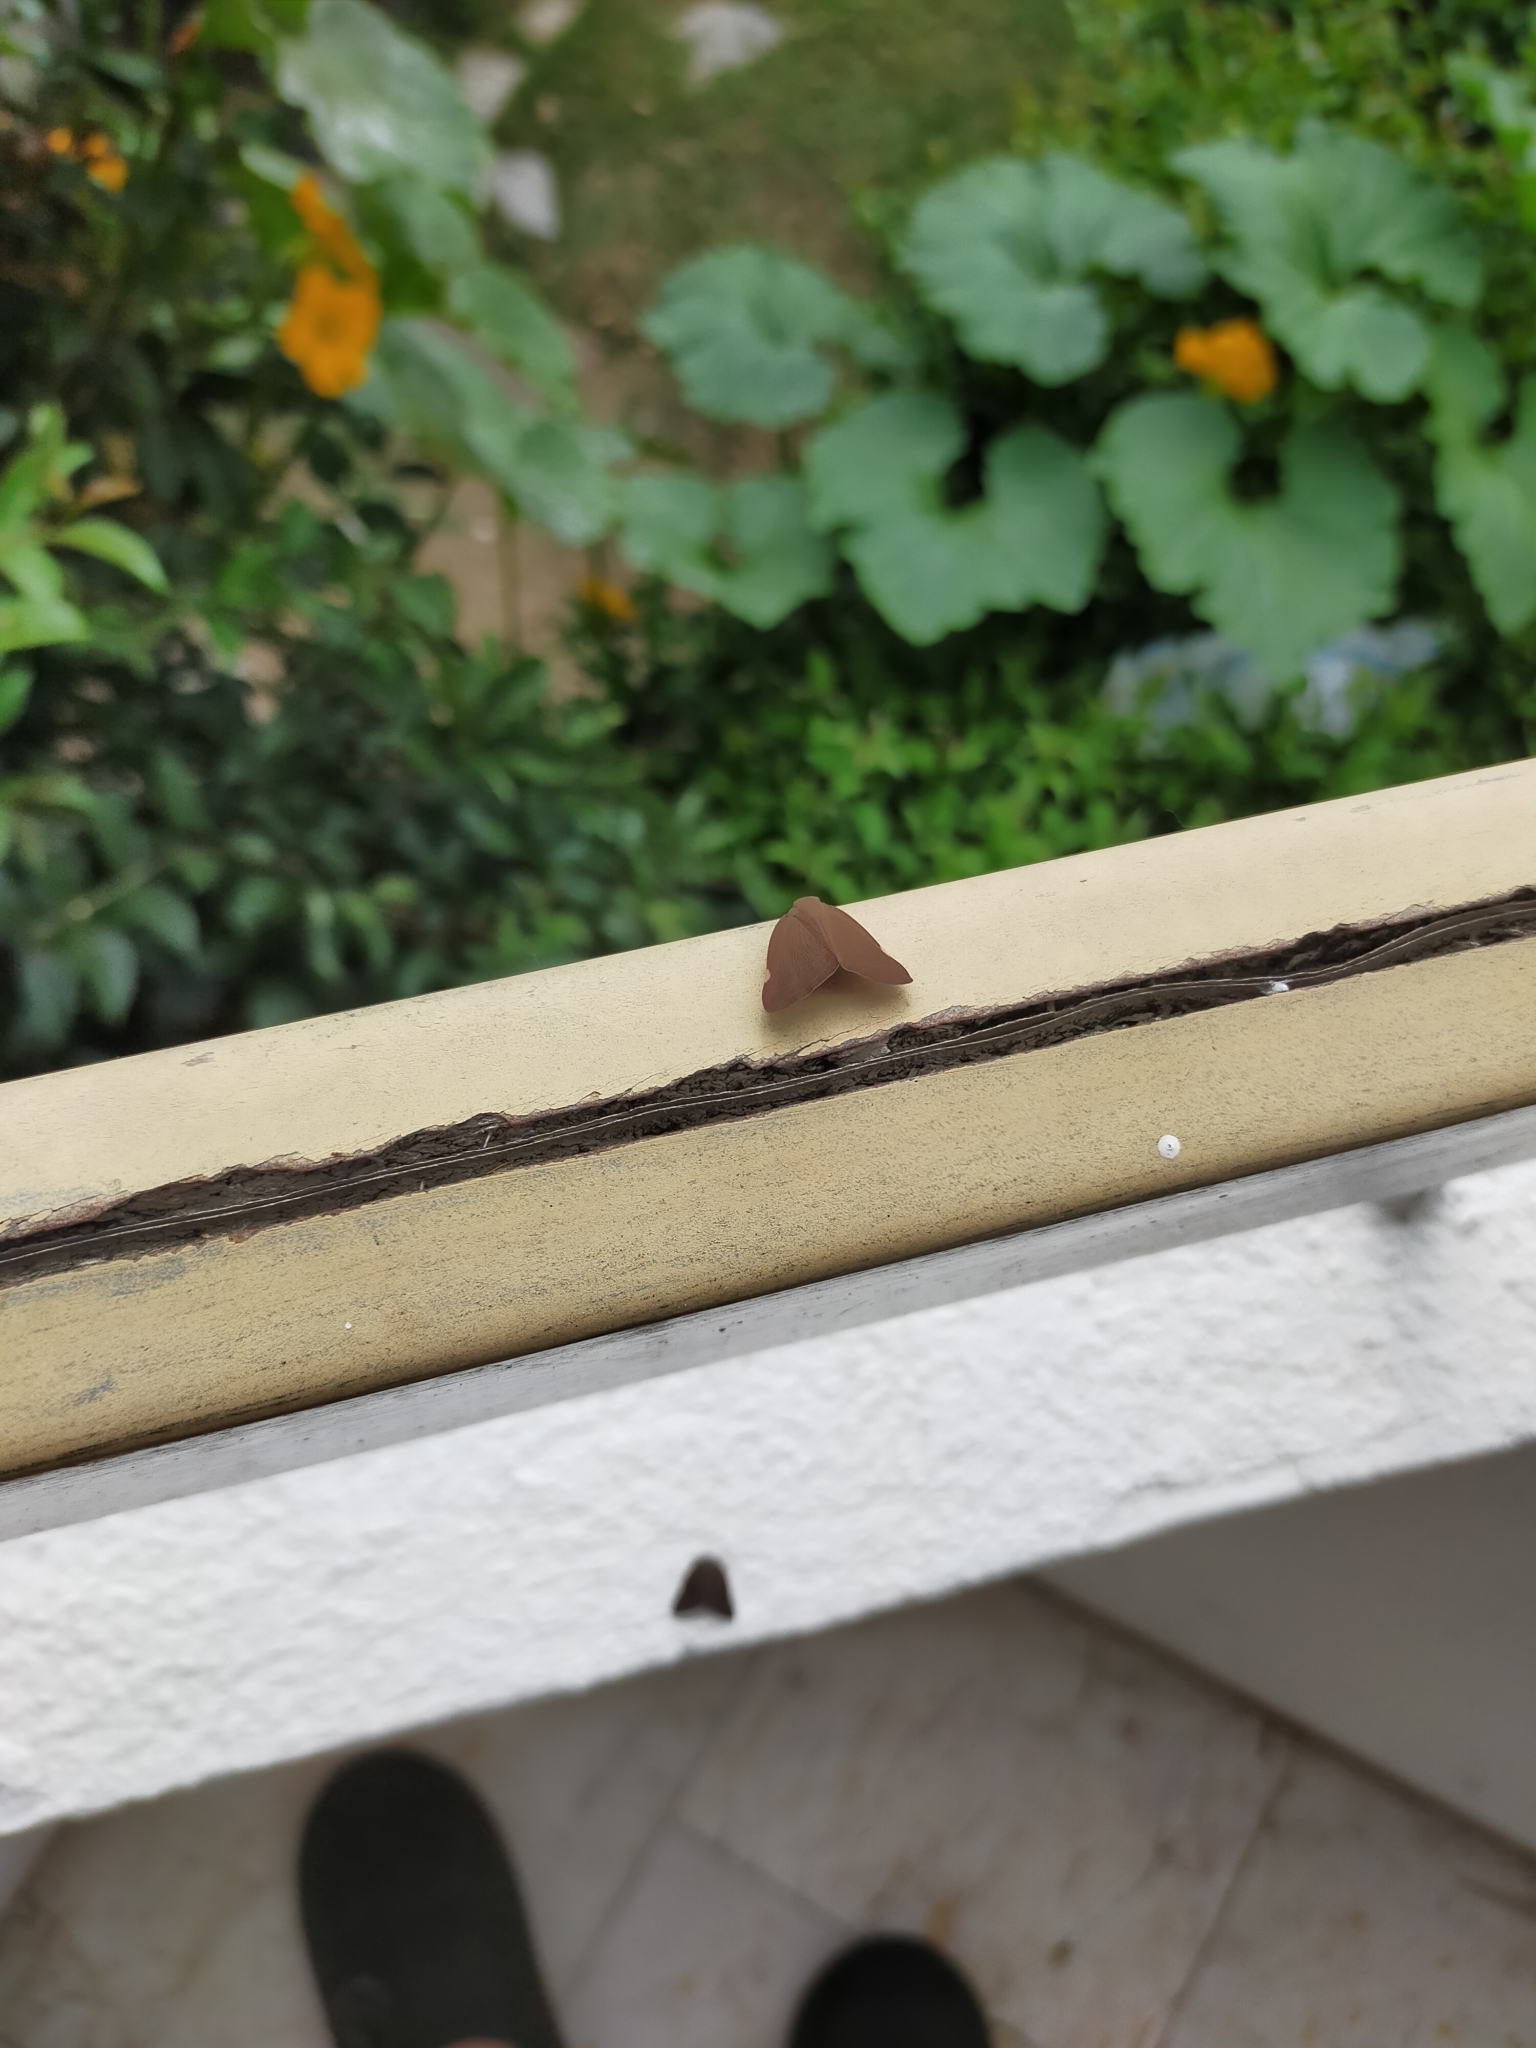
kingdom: Animalia
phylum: Arthropoda
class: Insecta
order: Hemiptera
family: Ricaniidae
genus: Ricania
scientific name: Ricania shantungensis
